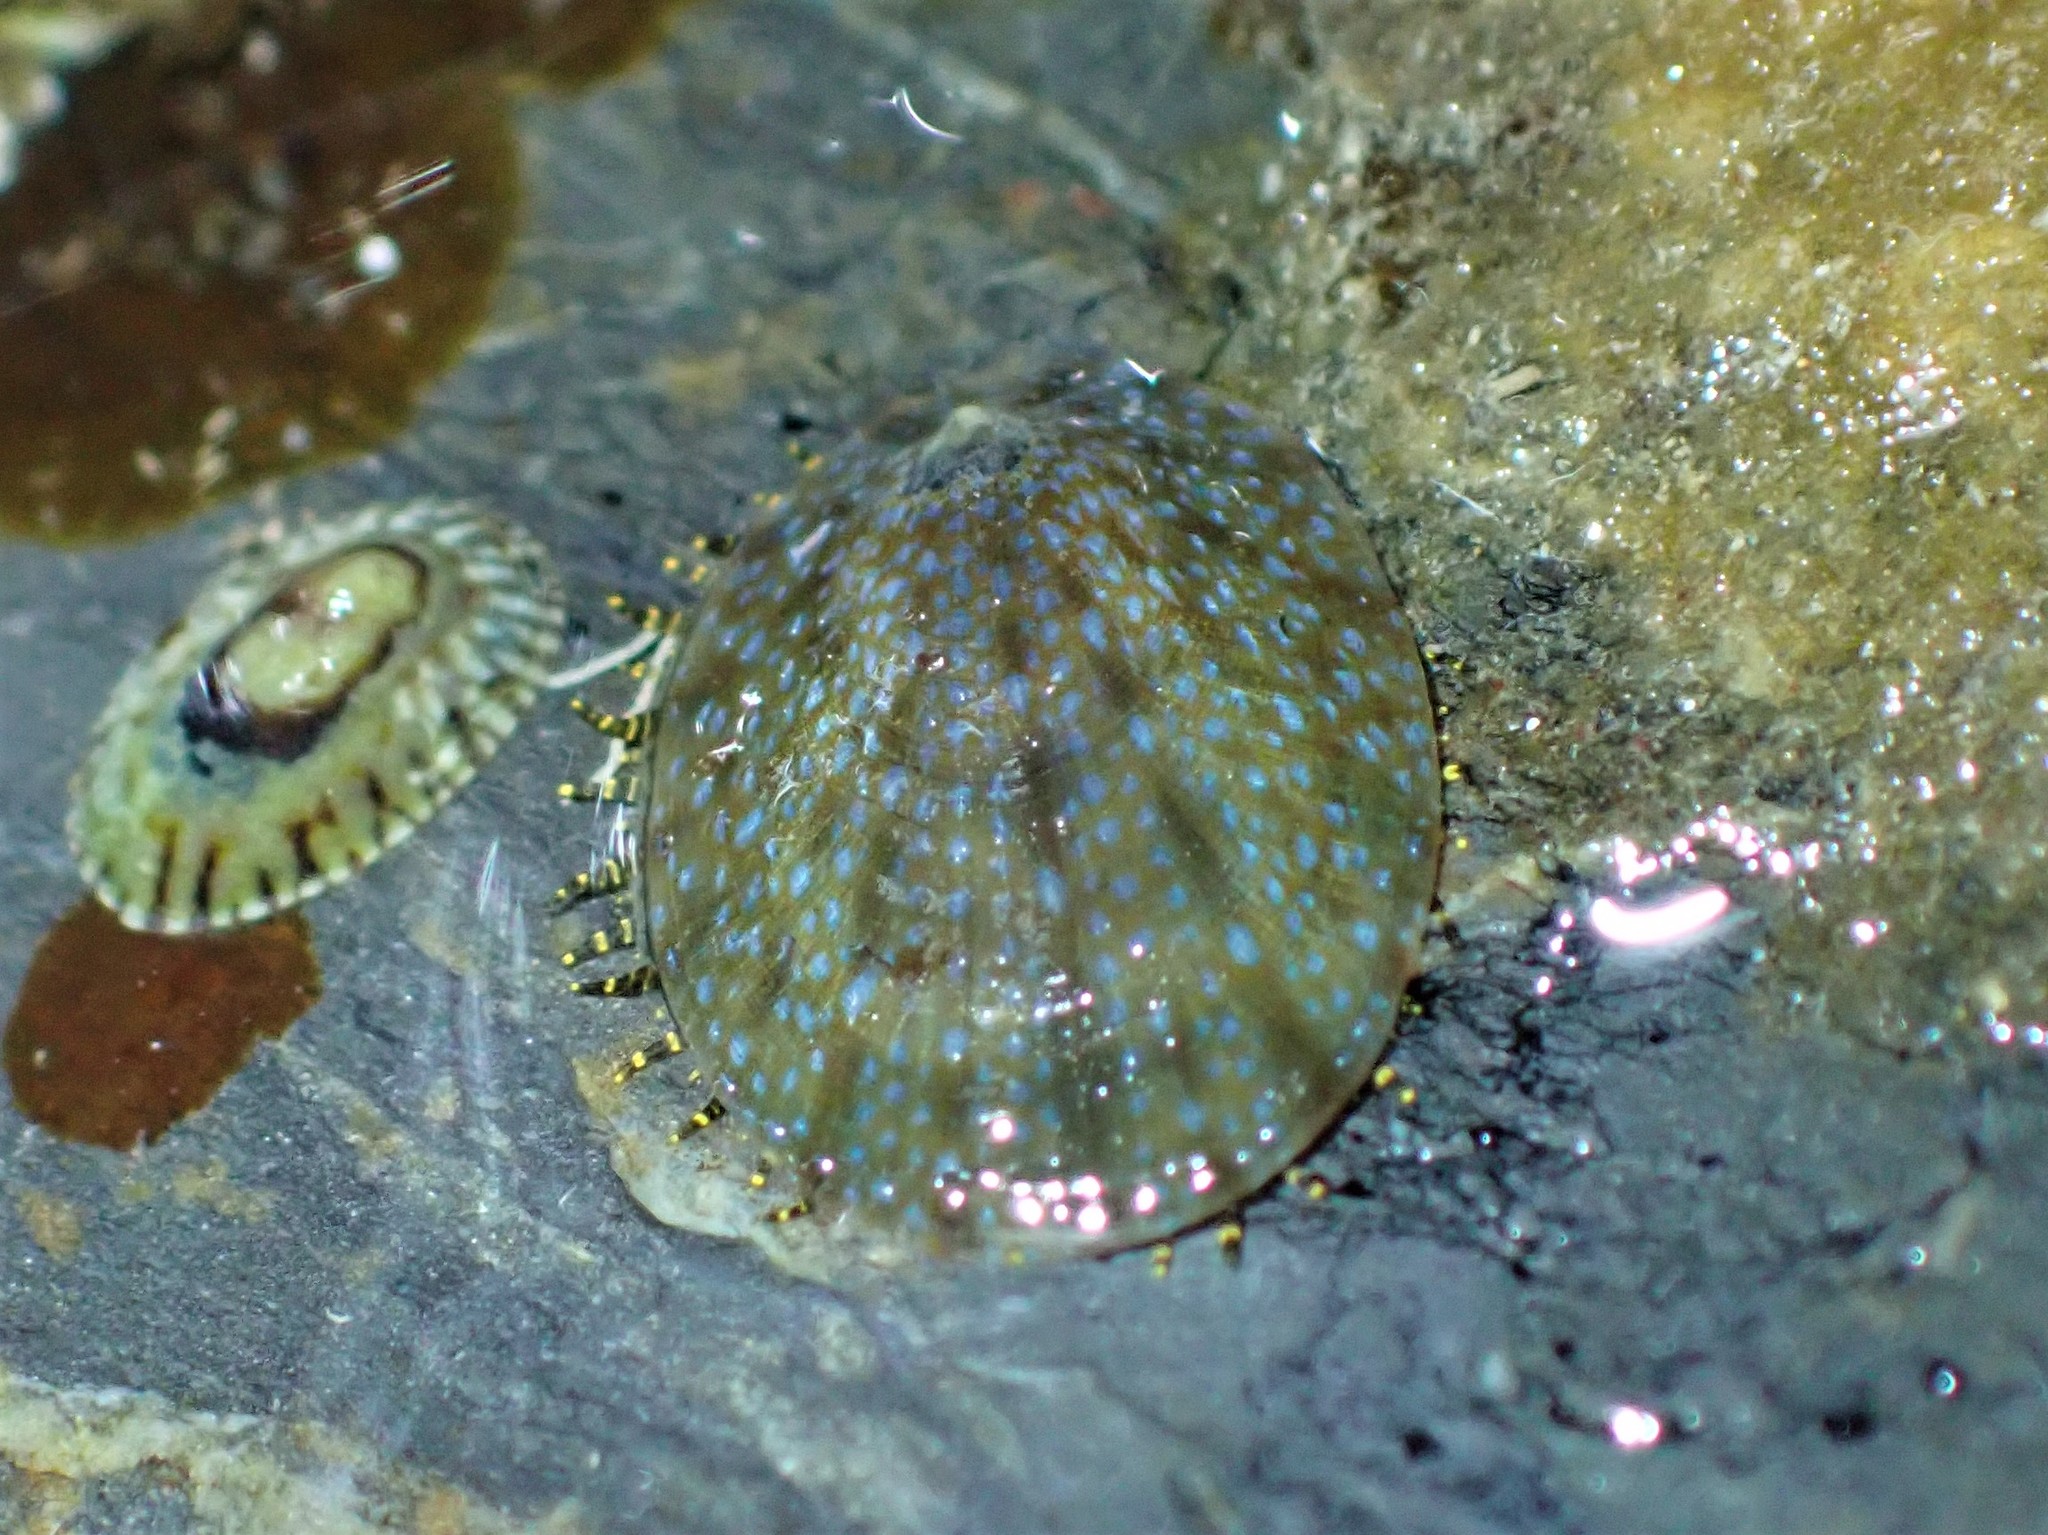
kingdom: Animalia
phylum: Mollusca
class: Gastropoda
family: Nacellidae
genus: Cellana
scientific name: Cellana radians
